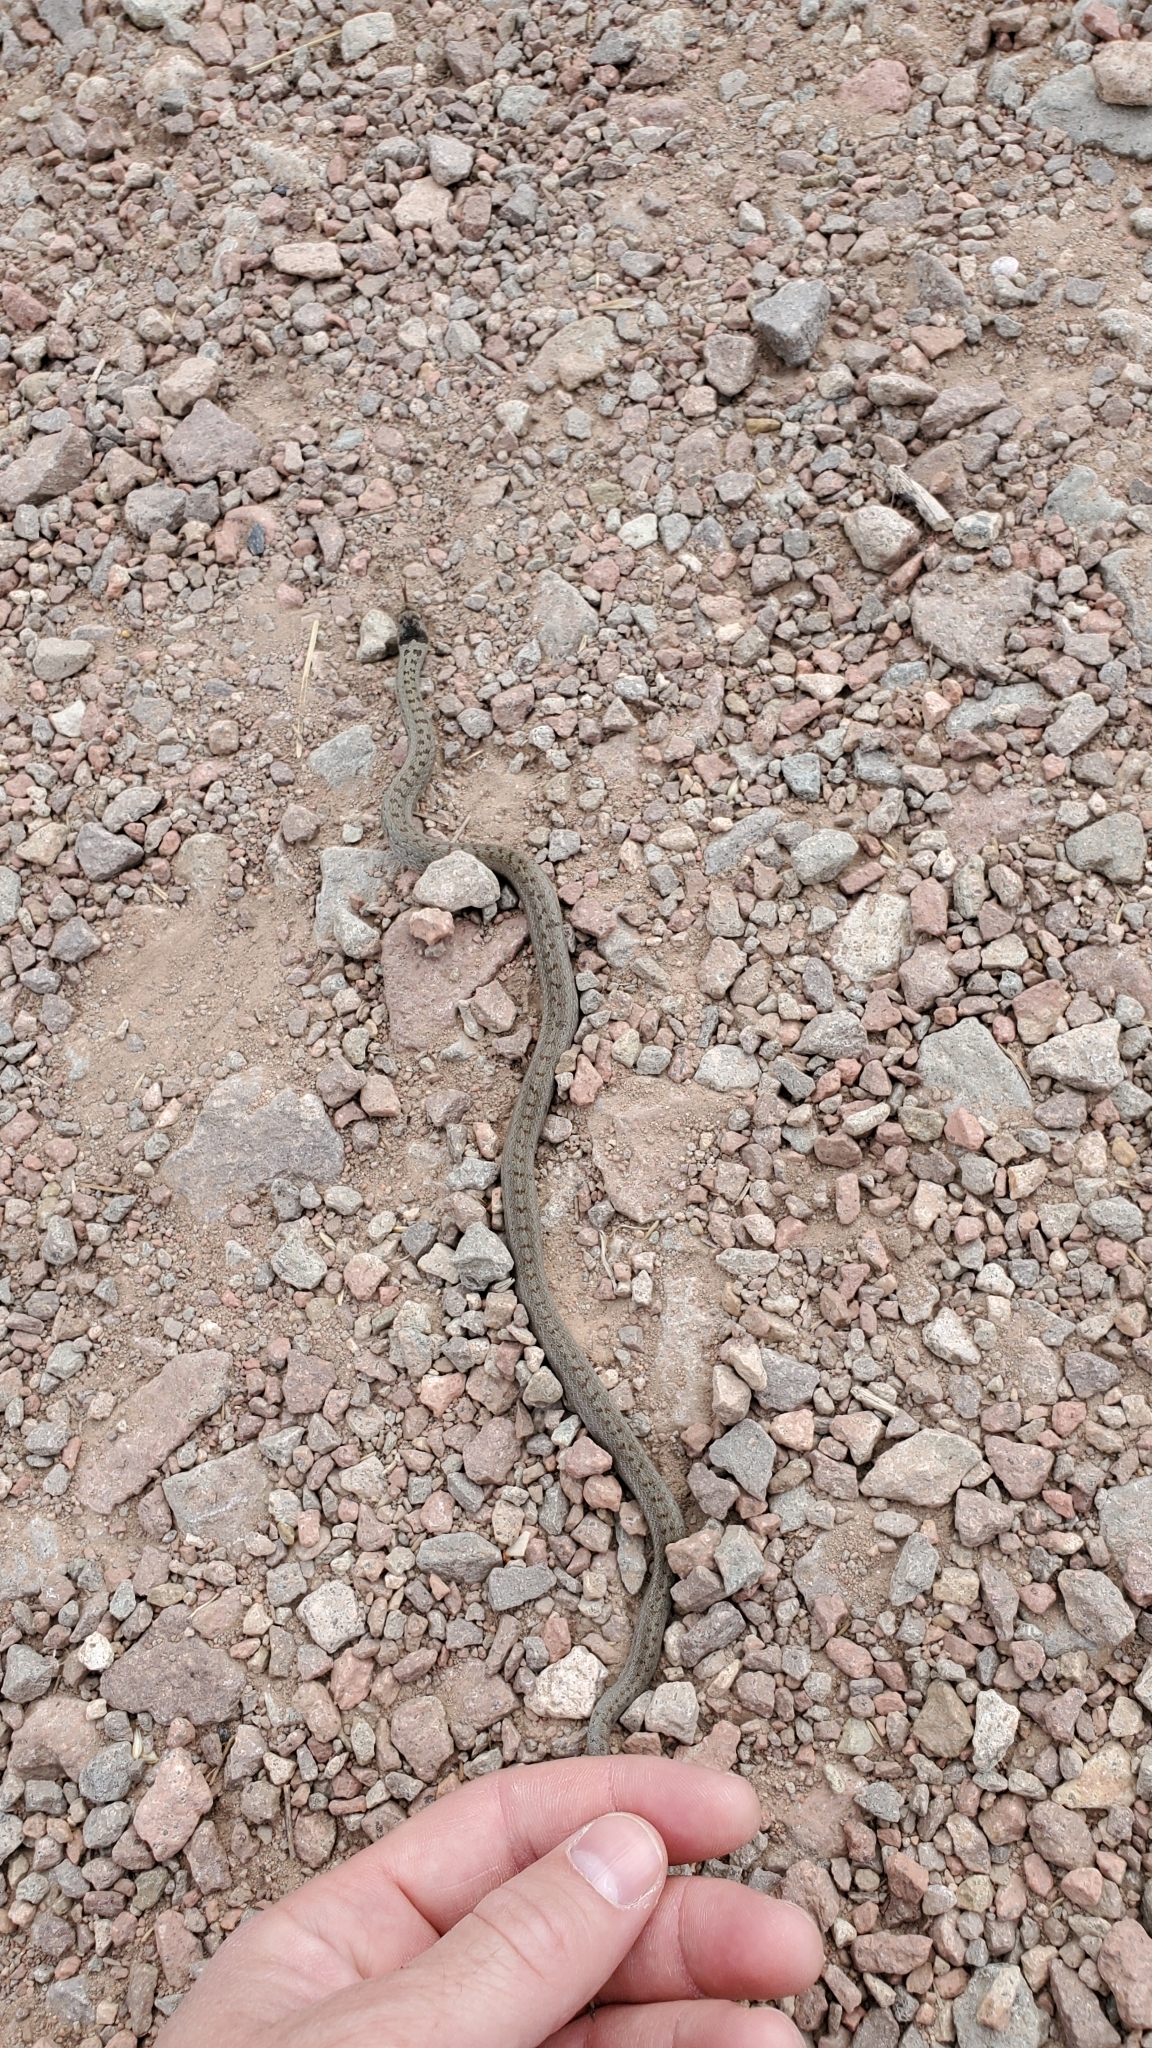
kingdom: Animalia
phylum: Chordata
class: Squamata
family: Colubridae
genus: Coronella
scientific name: Coronella austriaca
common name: Smooth snake
